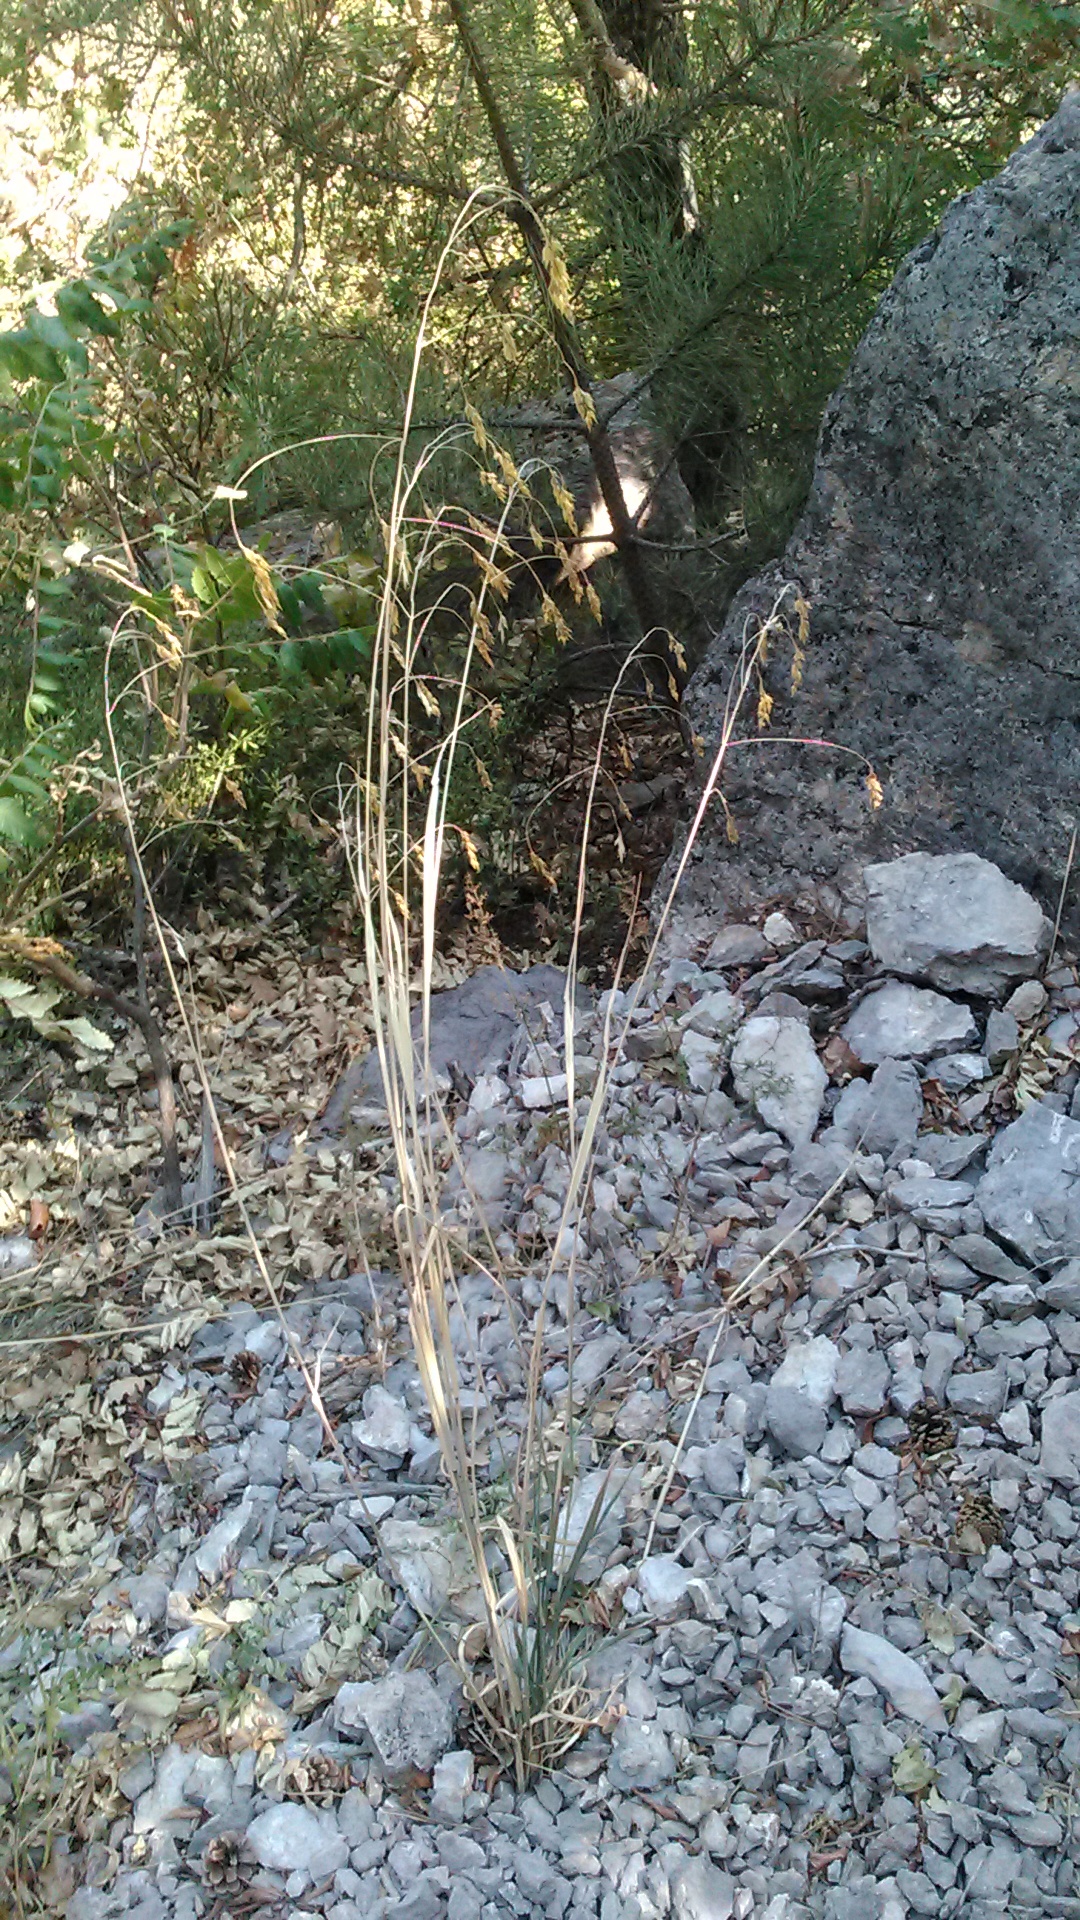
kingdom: Plantae
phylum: Tracheophyta
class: Liliopsida
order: Poales
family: Poaceae
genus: Piptatherum
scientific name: Piptatherum holciforme
